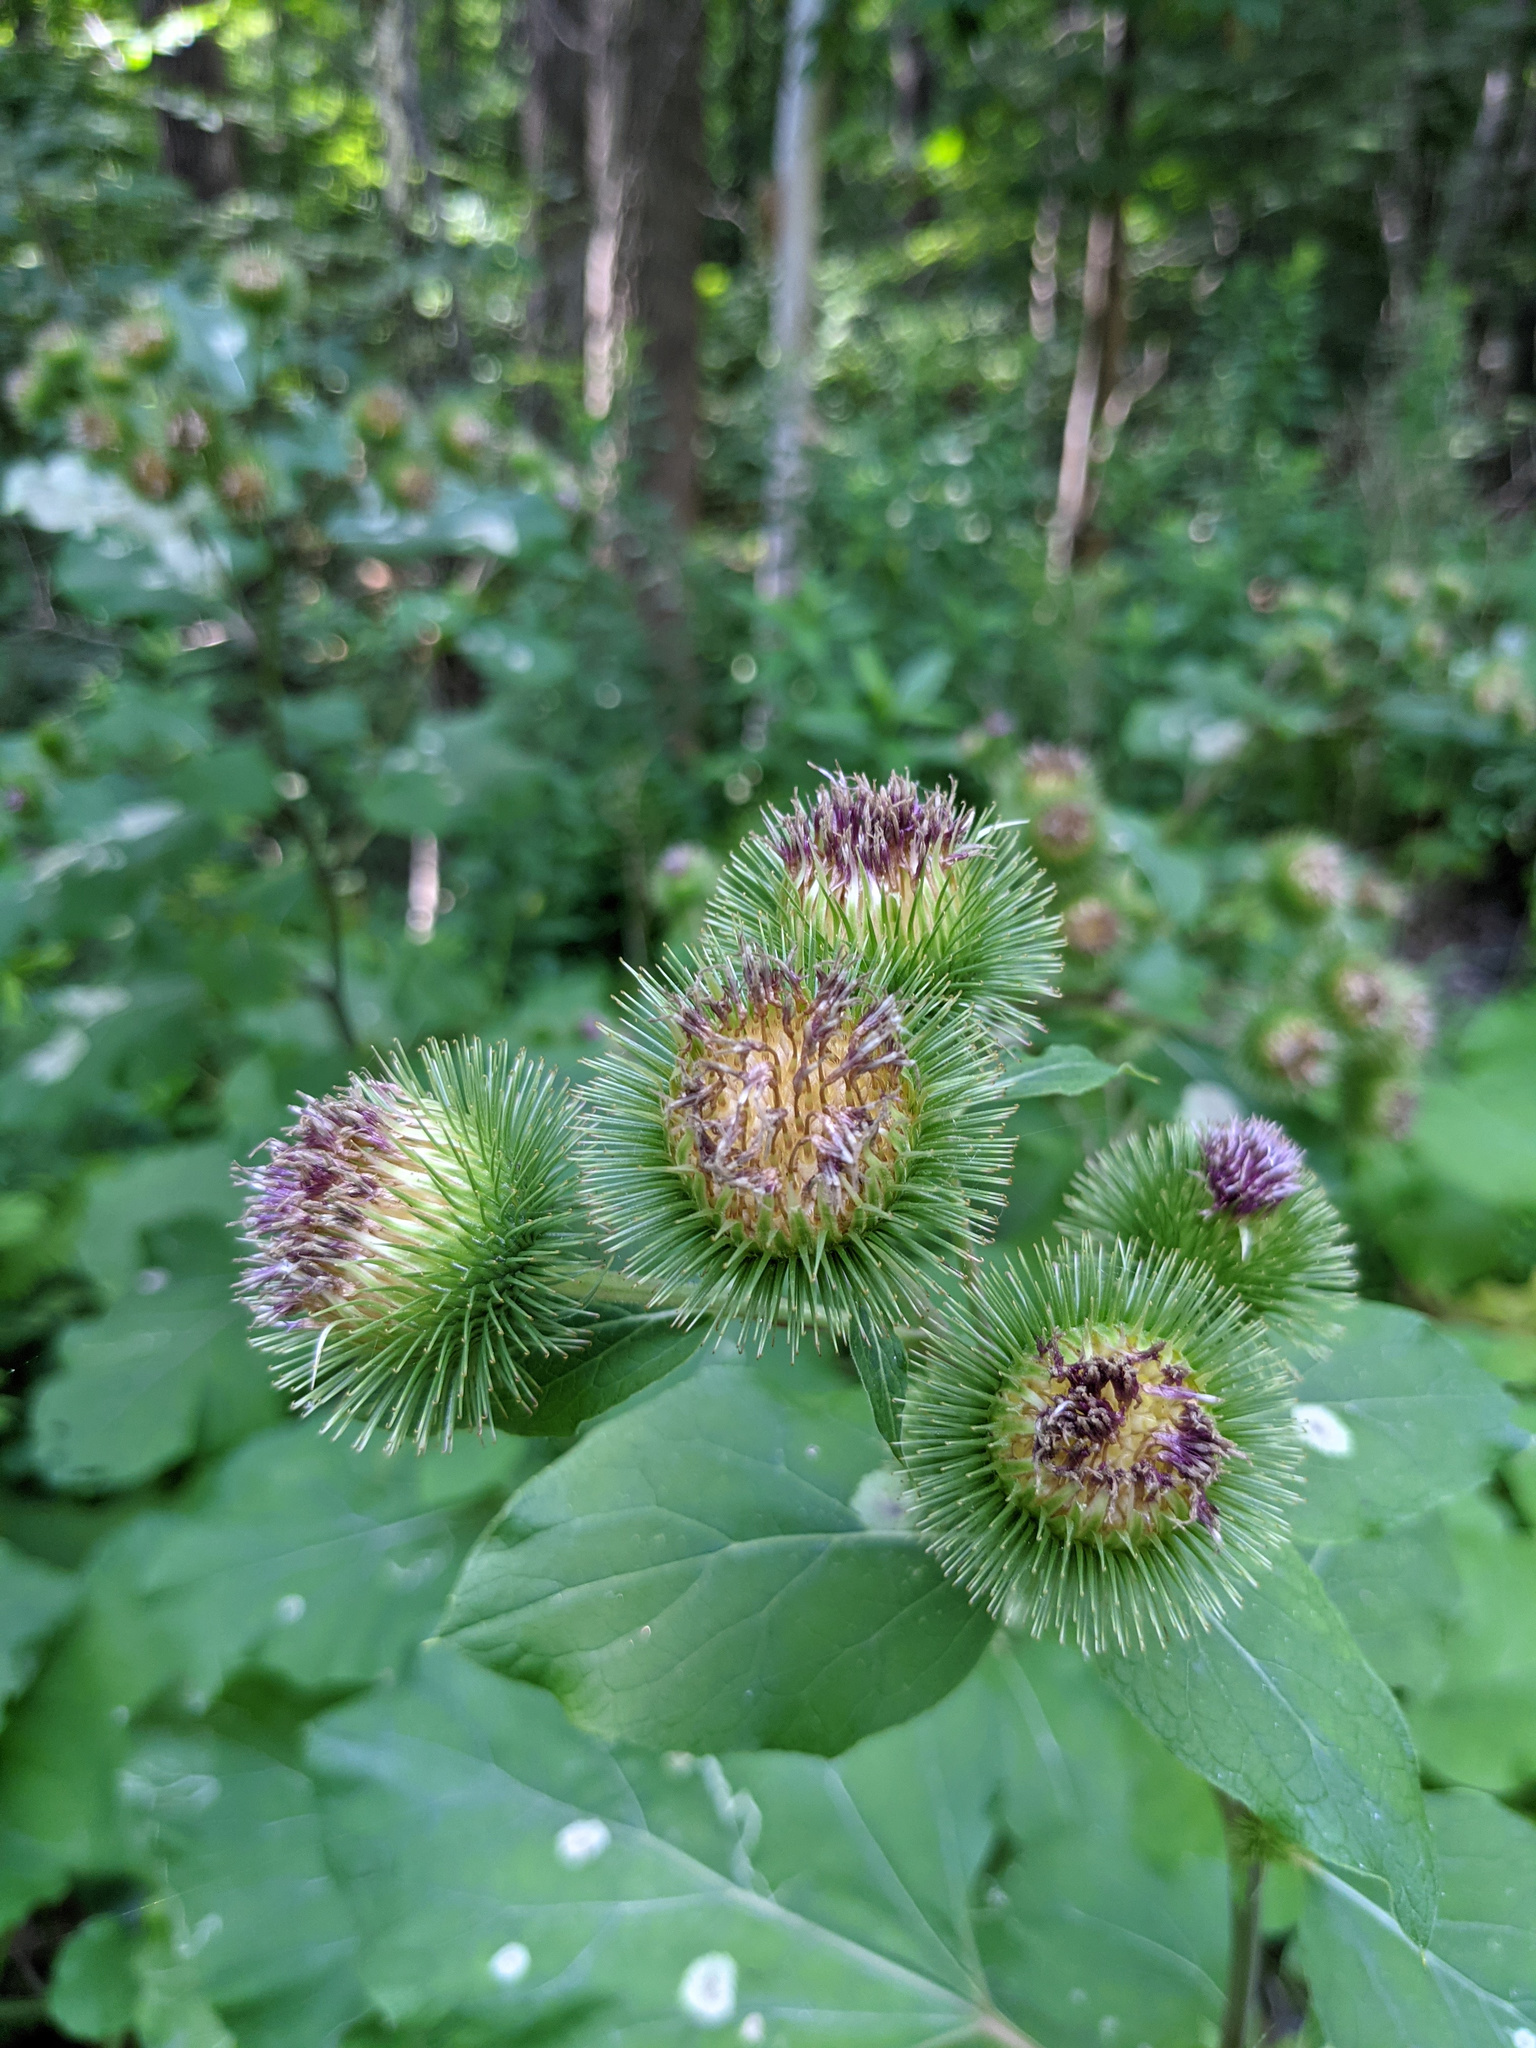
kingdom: Plantae
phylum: Tracheophyta
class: Magnoliopsida
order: Asterales
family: Asteraceae
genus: Arctium
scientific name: Arctium lappa
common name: Greater burdock
